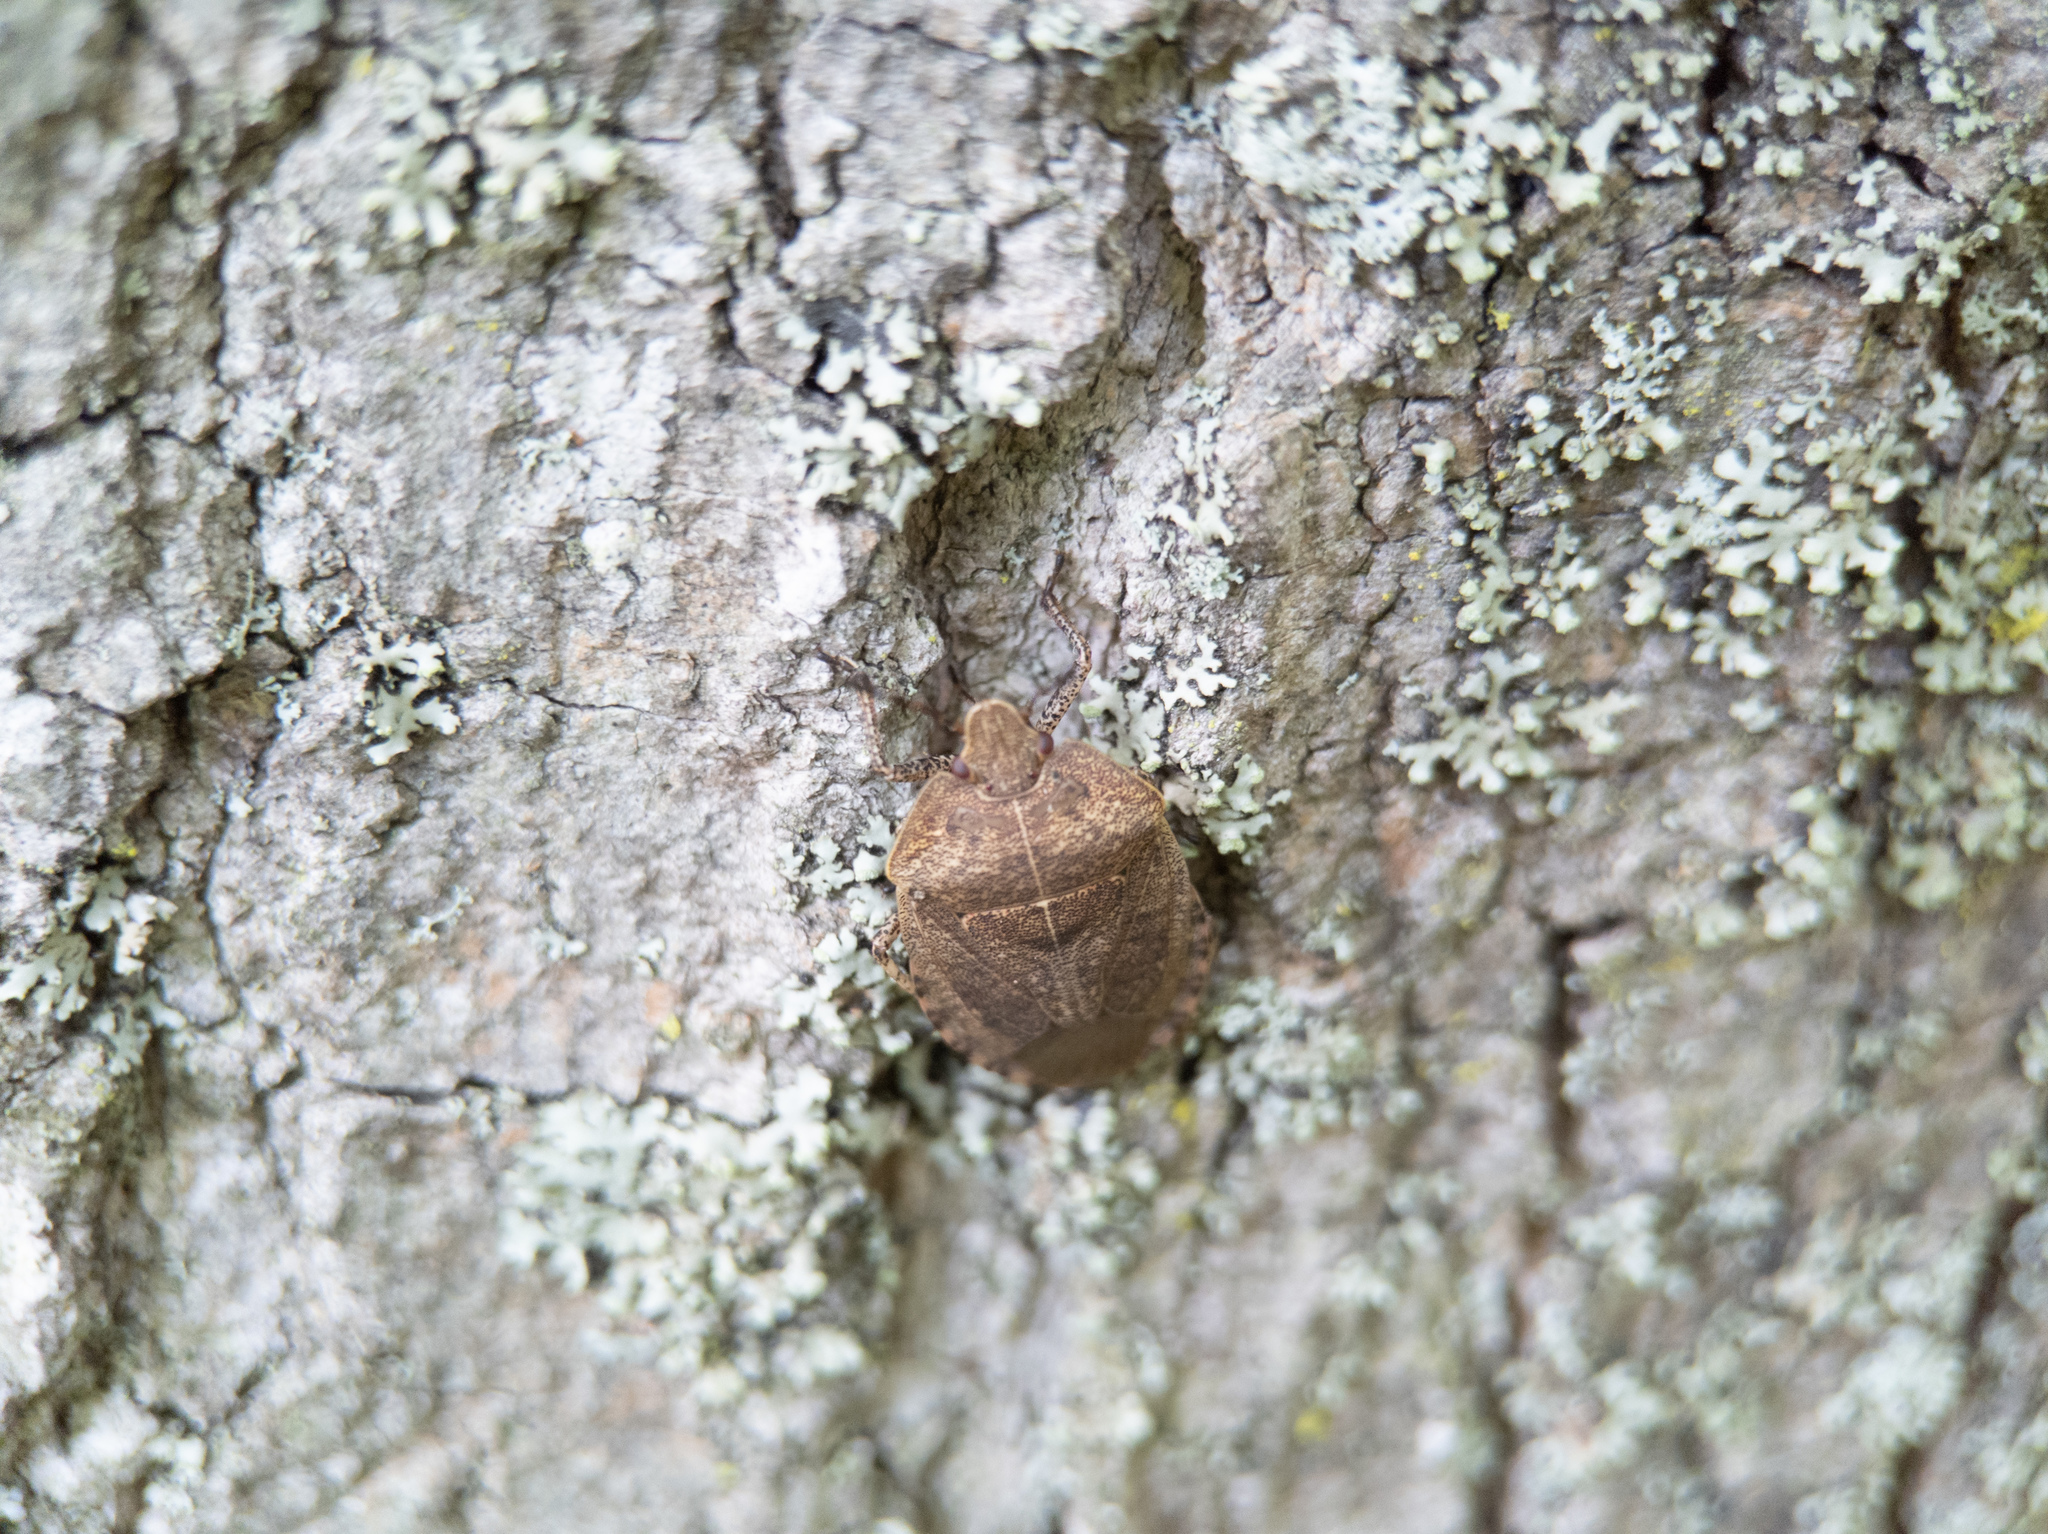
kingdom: Animalia
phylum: Arthropoda
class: Insecta
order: Hemiptera
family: Pentatomidae
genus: Menecles
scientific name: Menecles insertus
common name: Elf shoe stink bug
